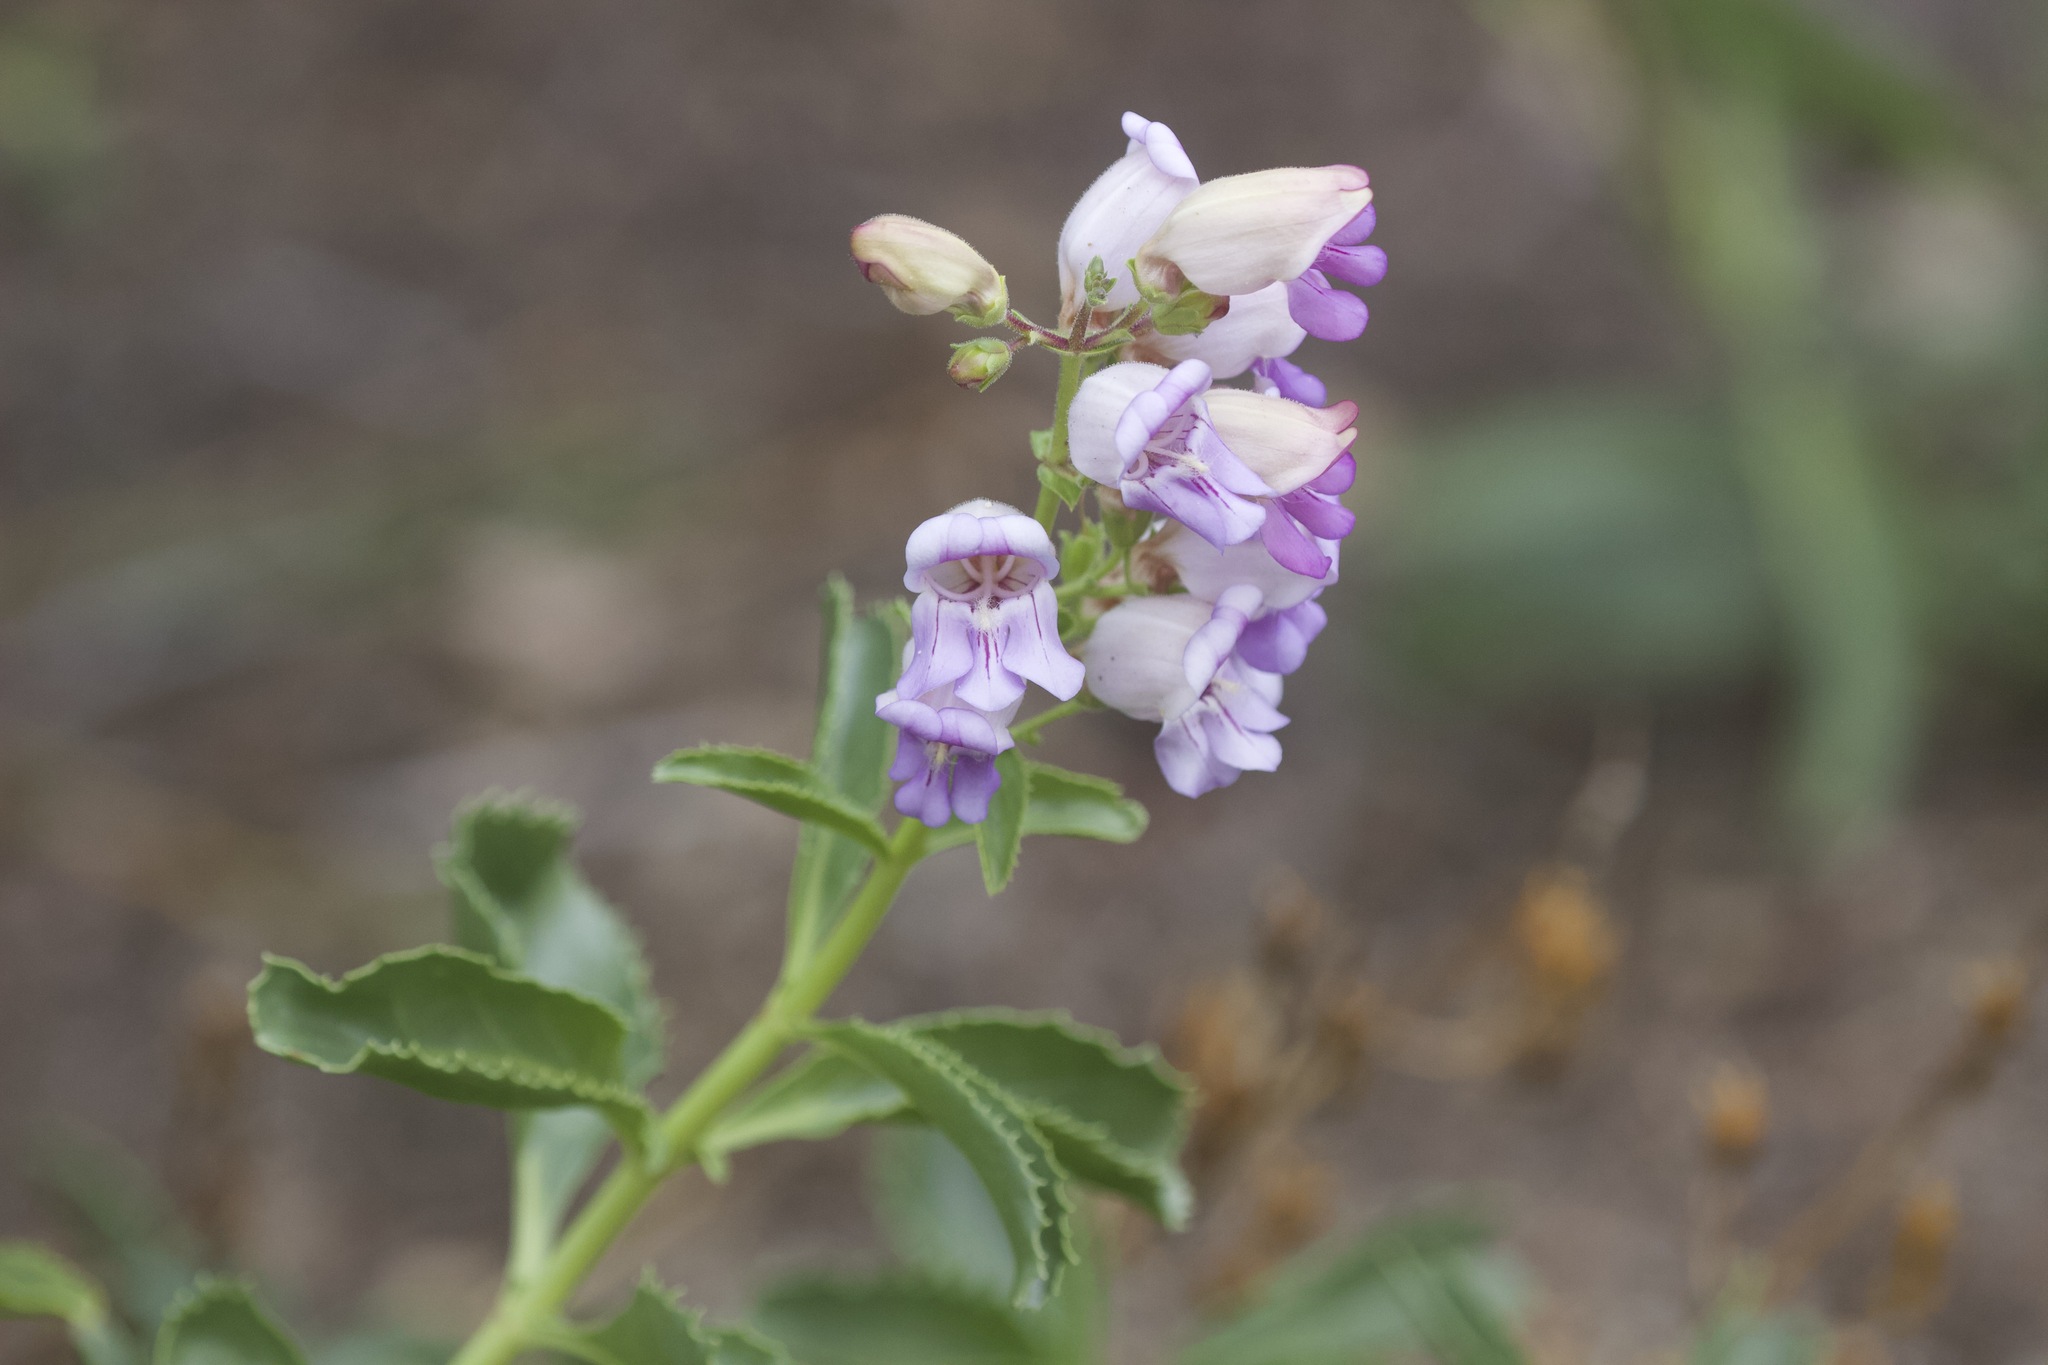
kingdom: Plantae
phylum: Tracheophyta
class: Magnoliopsida
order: Lamiales
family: Plantaginaceae
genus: Penstemon
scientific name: Penstemon grinnellii
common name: Grinnell's beardtongue
